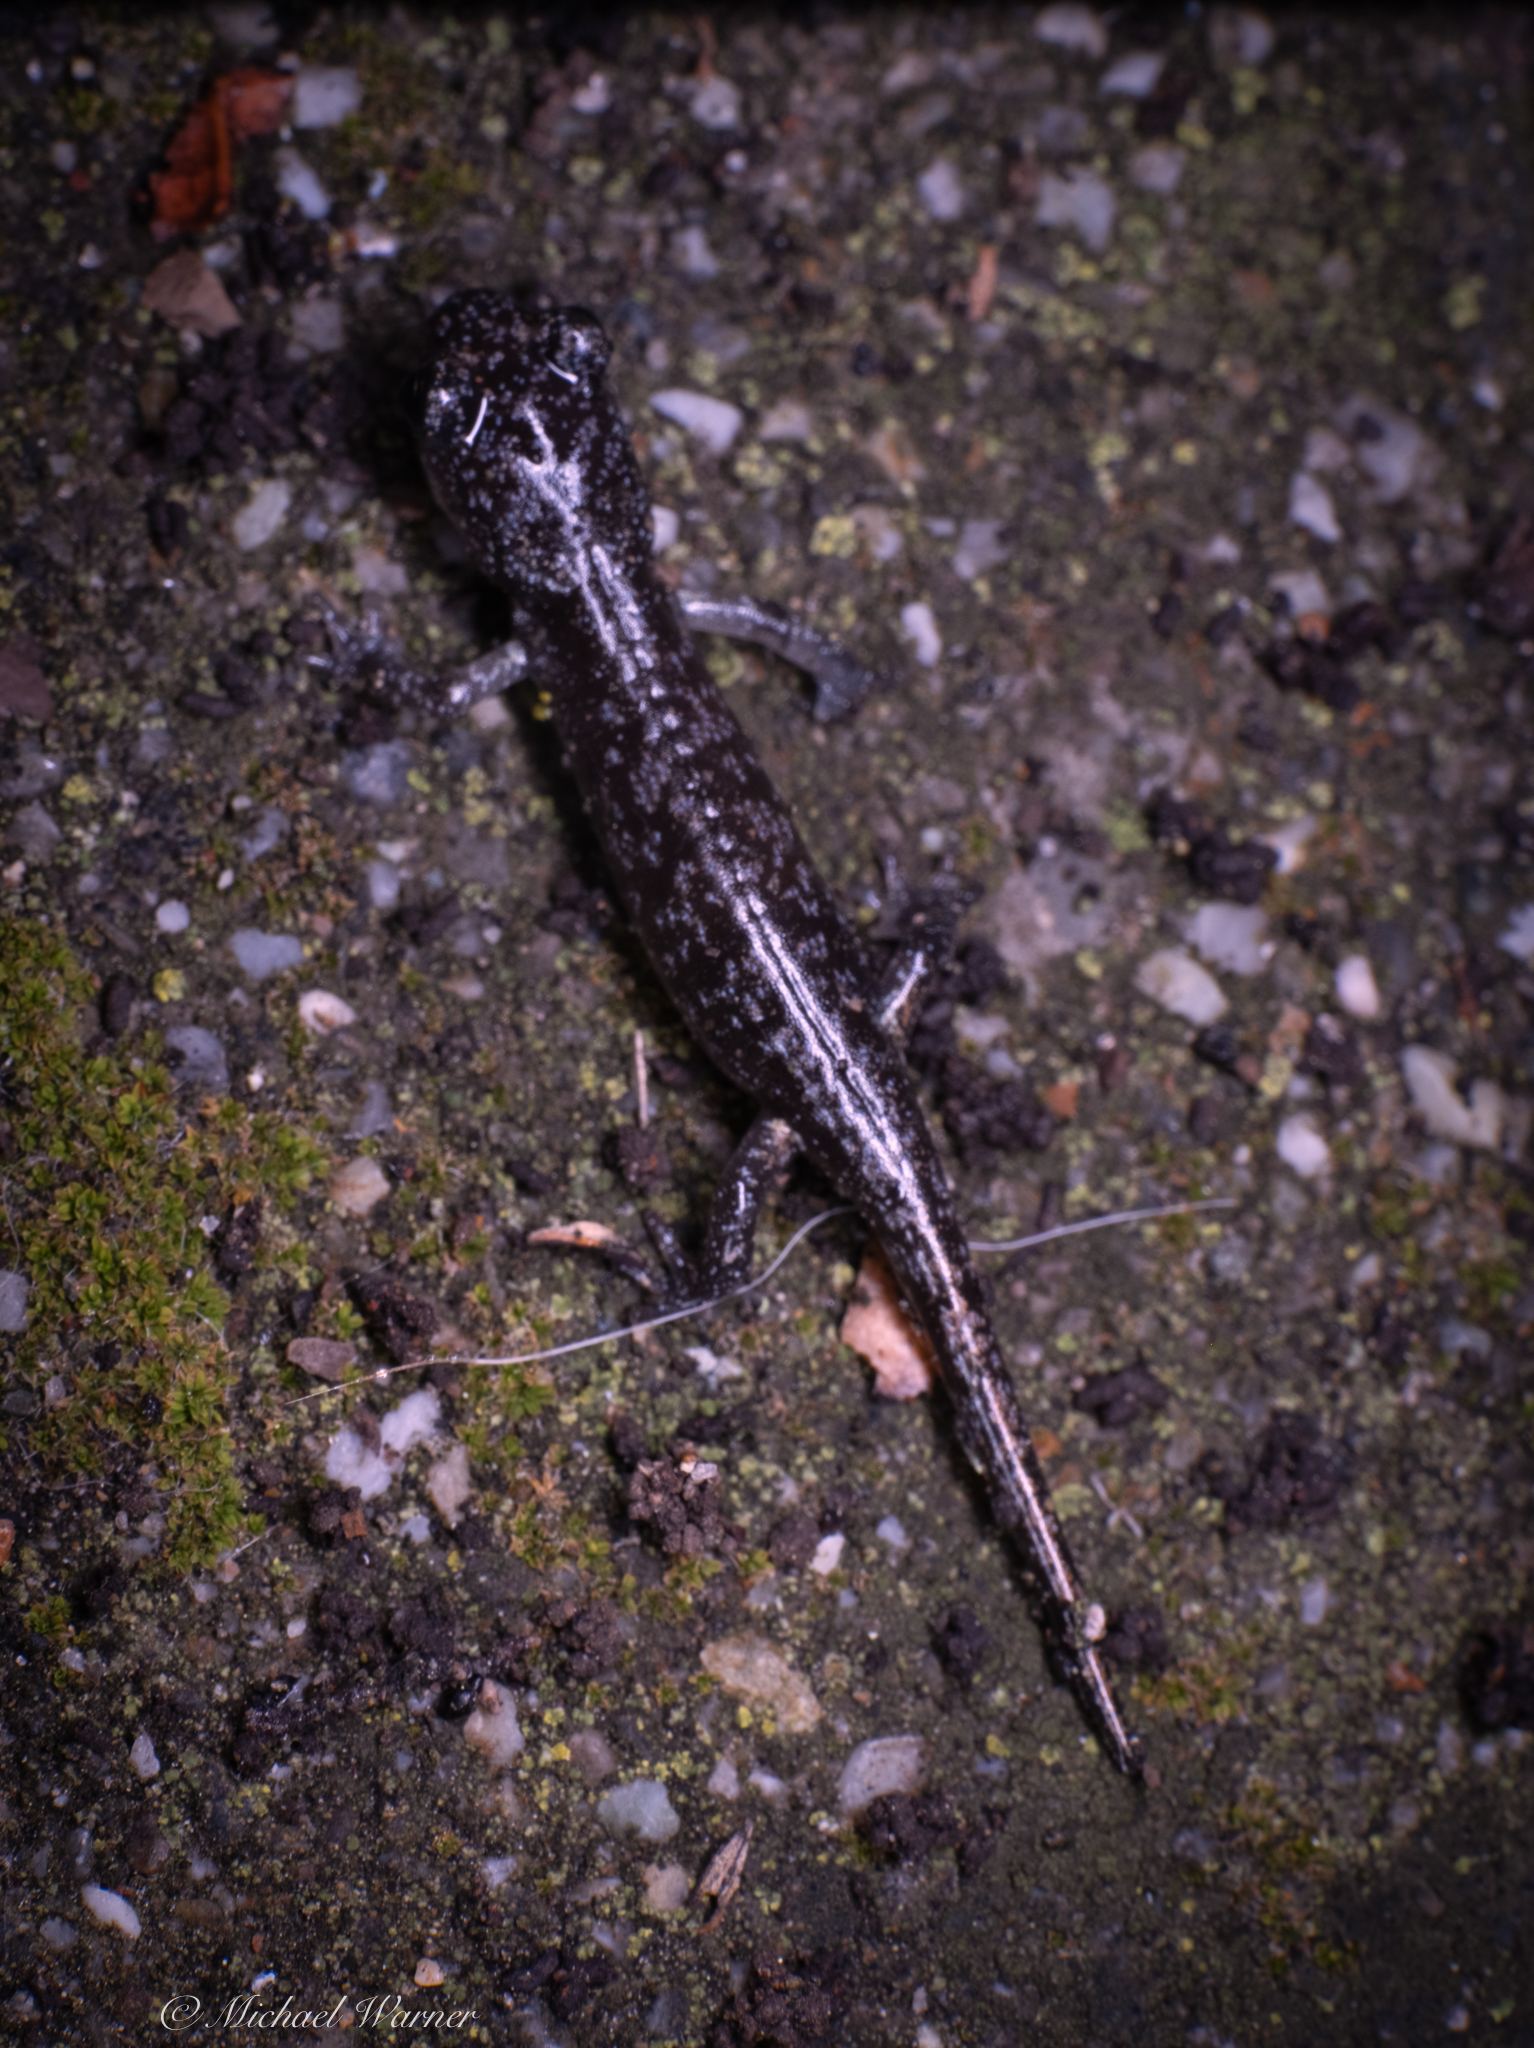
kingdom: Animalia
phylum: Chordata
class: Amphibia
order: Caudata
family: Plethodontidae
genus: Aneides
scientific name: Aneides lugubris
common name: Arboreal salamander
